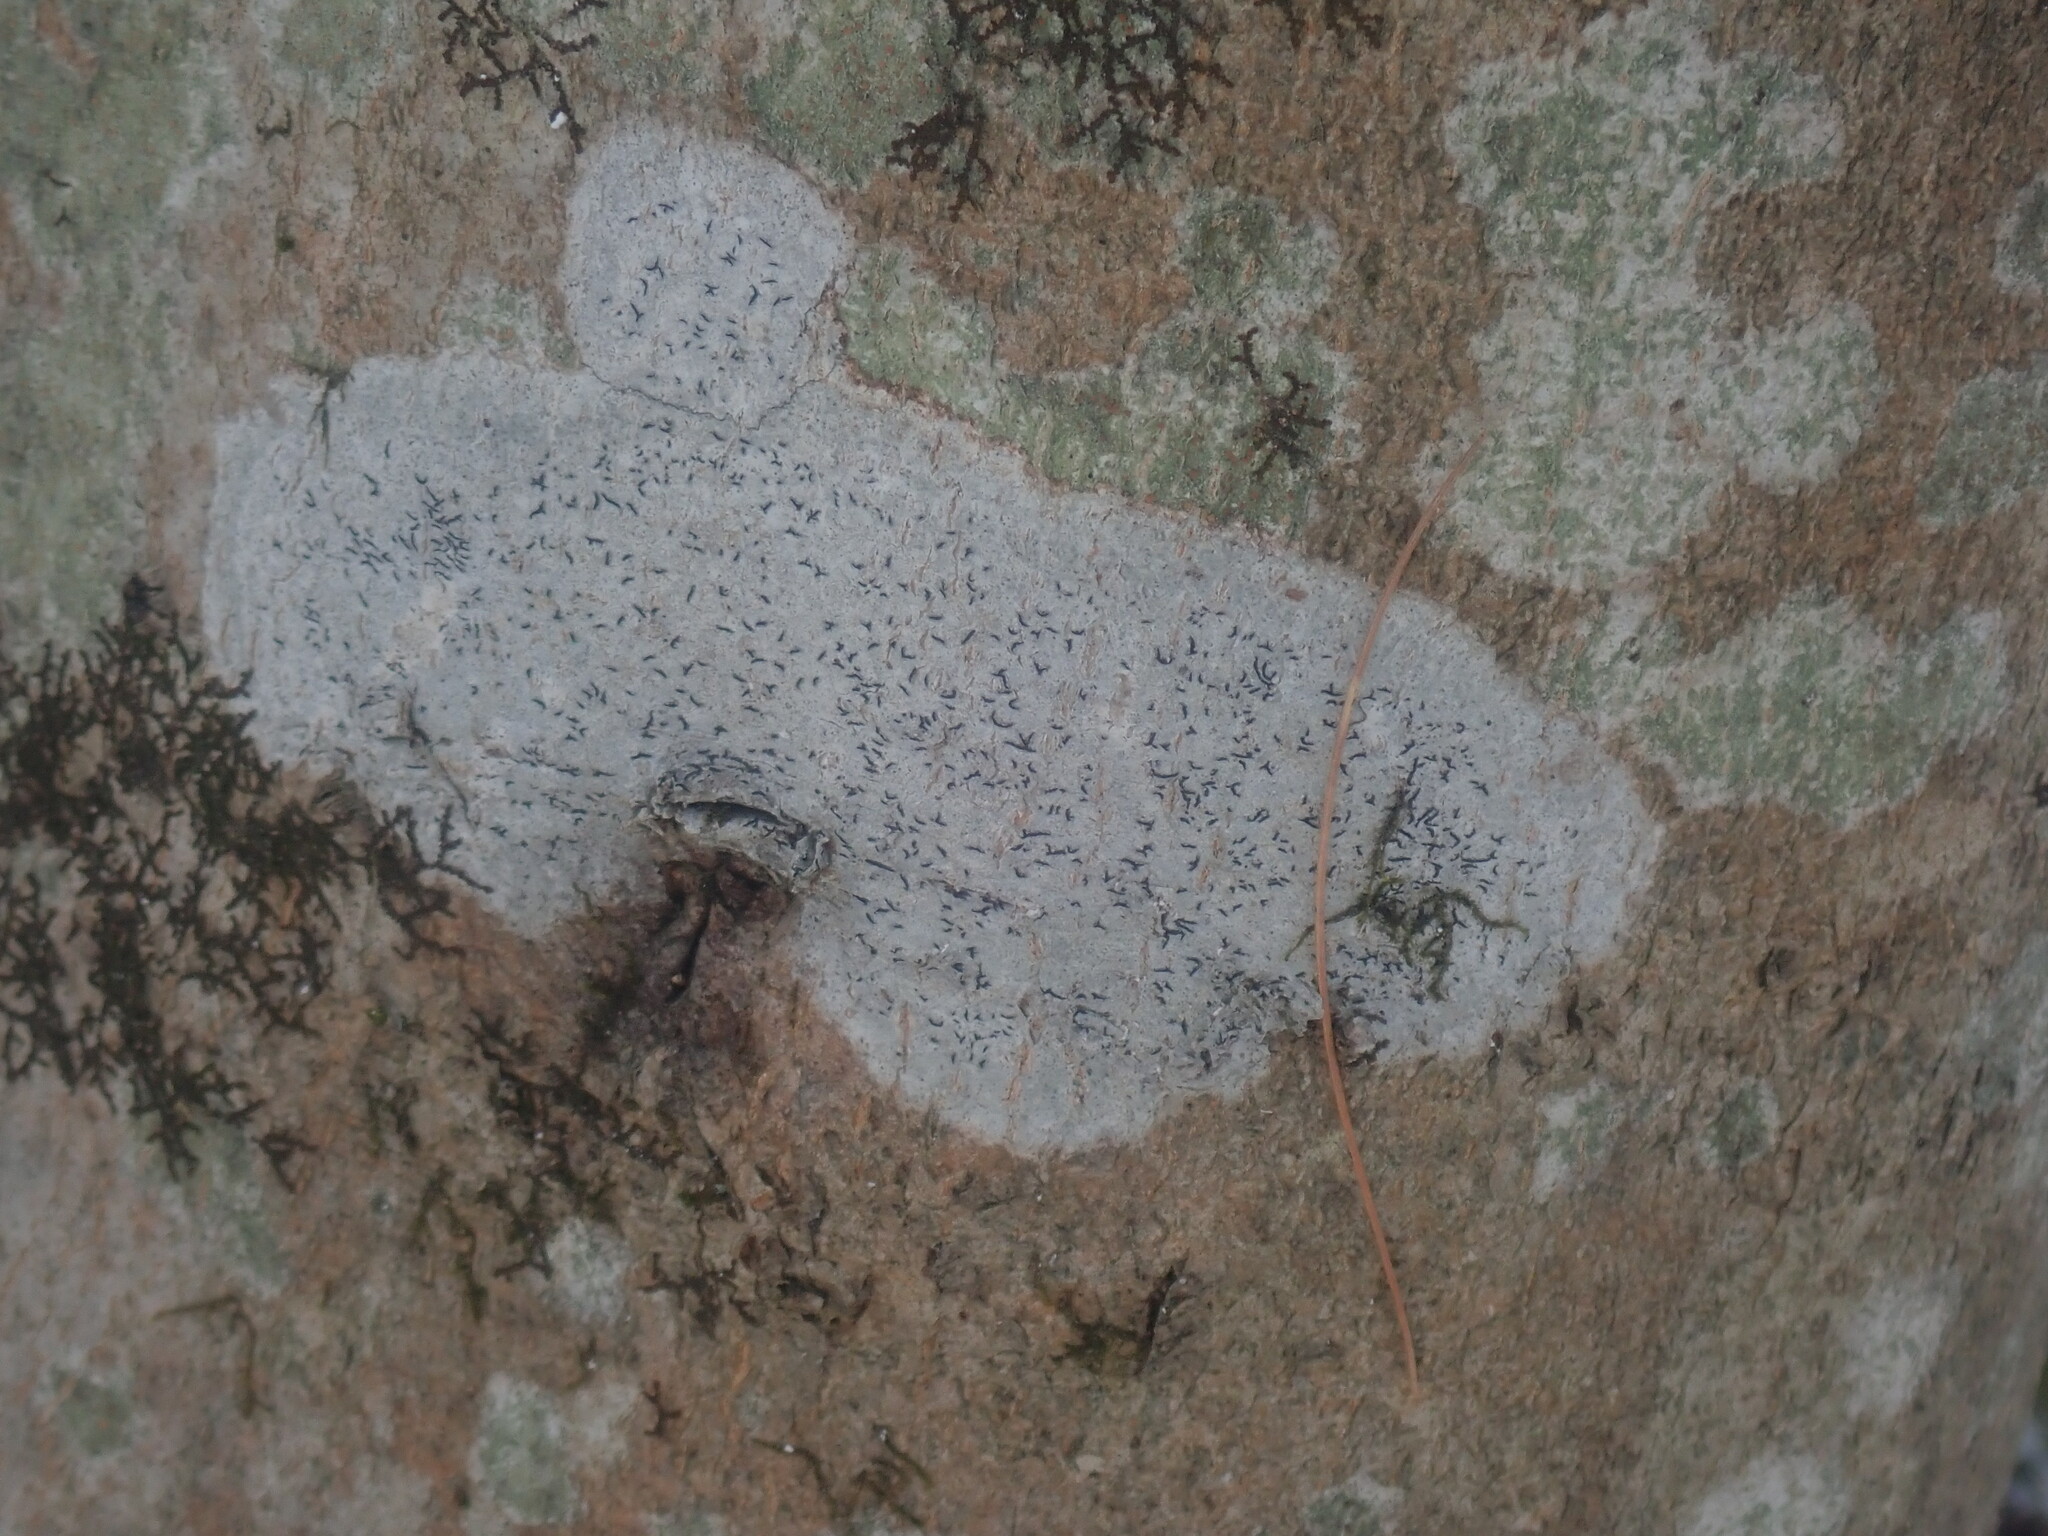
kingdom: Fungi
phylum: Ascomycota
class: Lecanoromycetes
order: Ostropales
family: Graphidaceae
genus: Graphis
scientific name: Graphis scripta
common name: Script lichen
